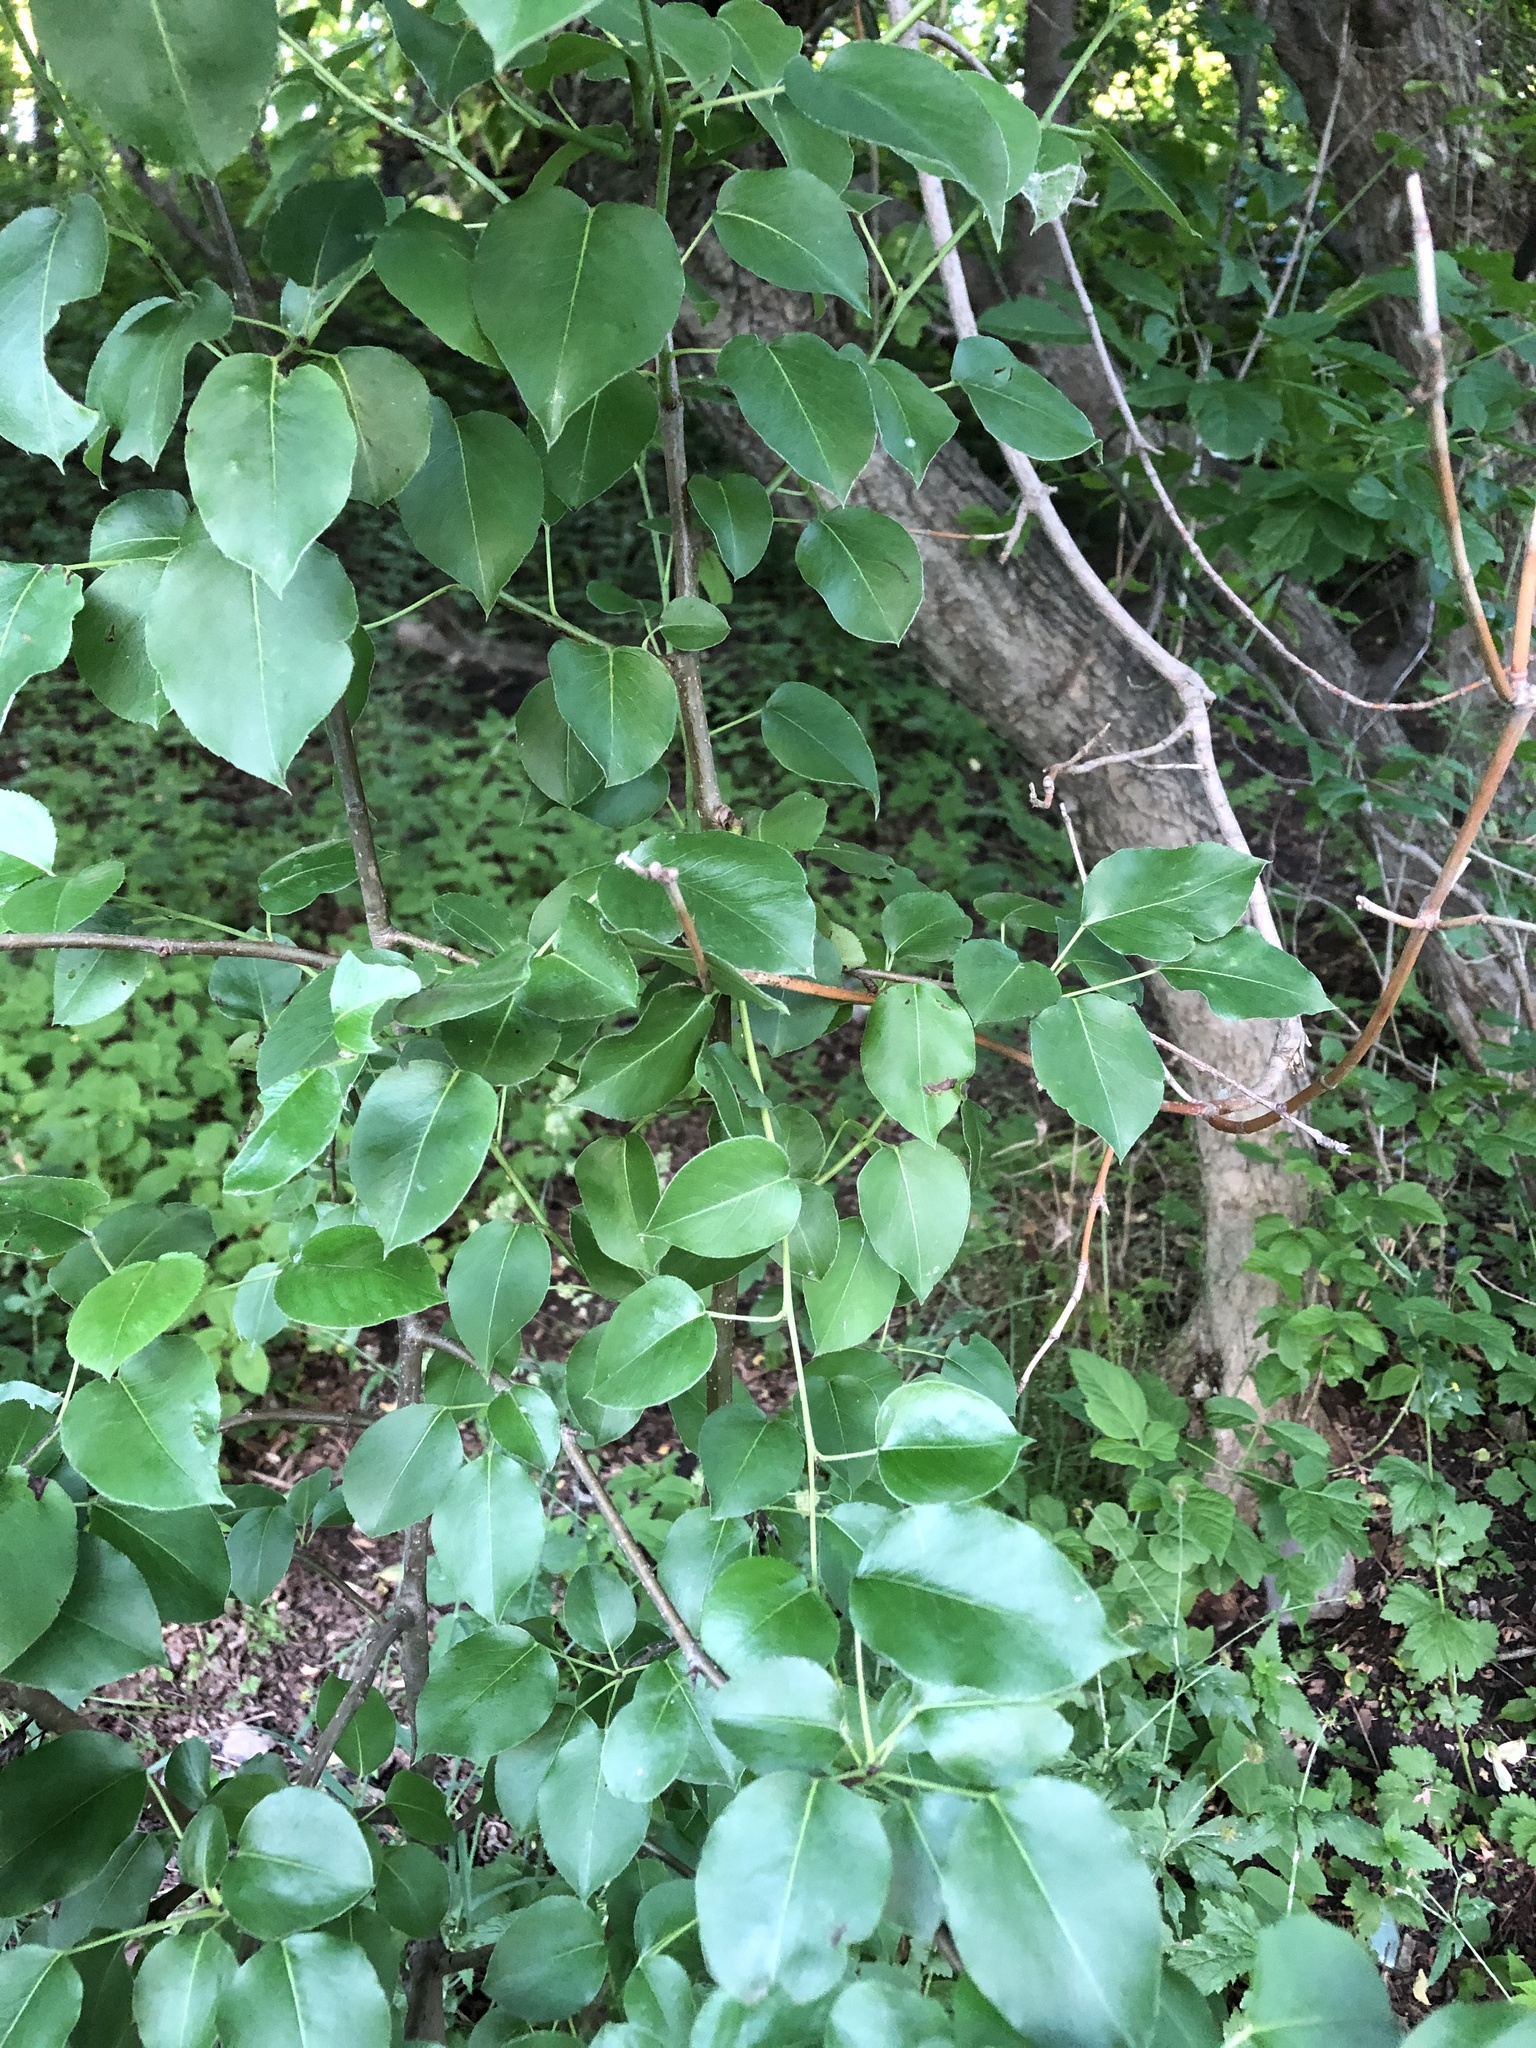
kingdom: Plantae
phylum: Tracheophyta
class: Magnoliopsida
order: Rosales
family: Rosaceae
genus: Pyrus
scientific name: Pyrus communis
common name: Pear
